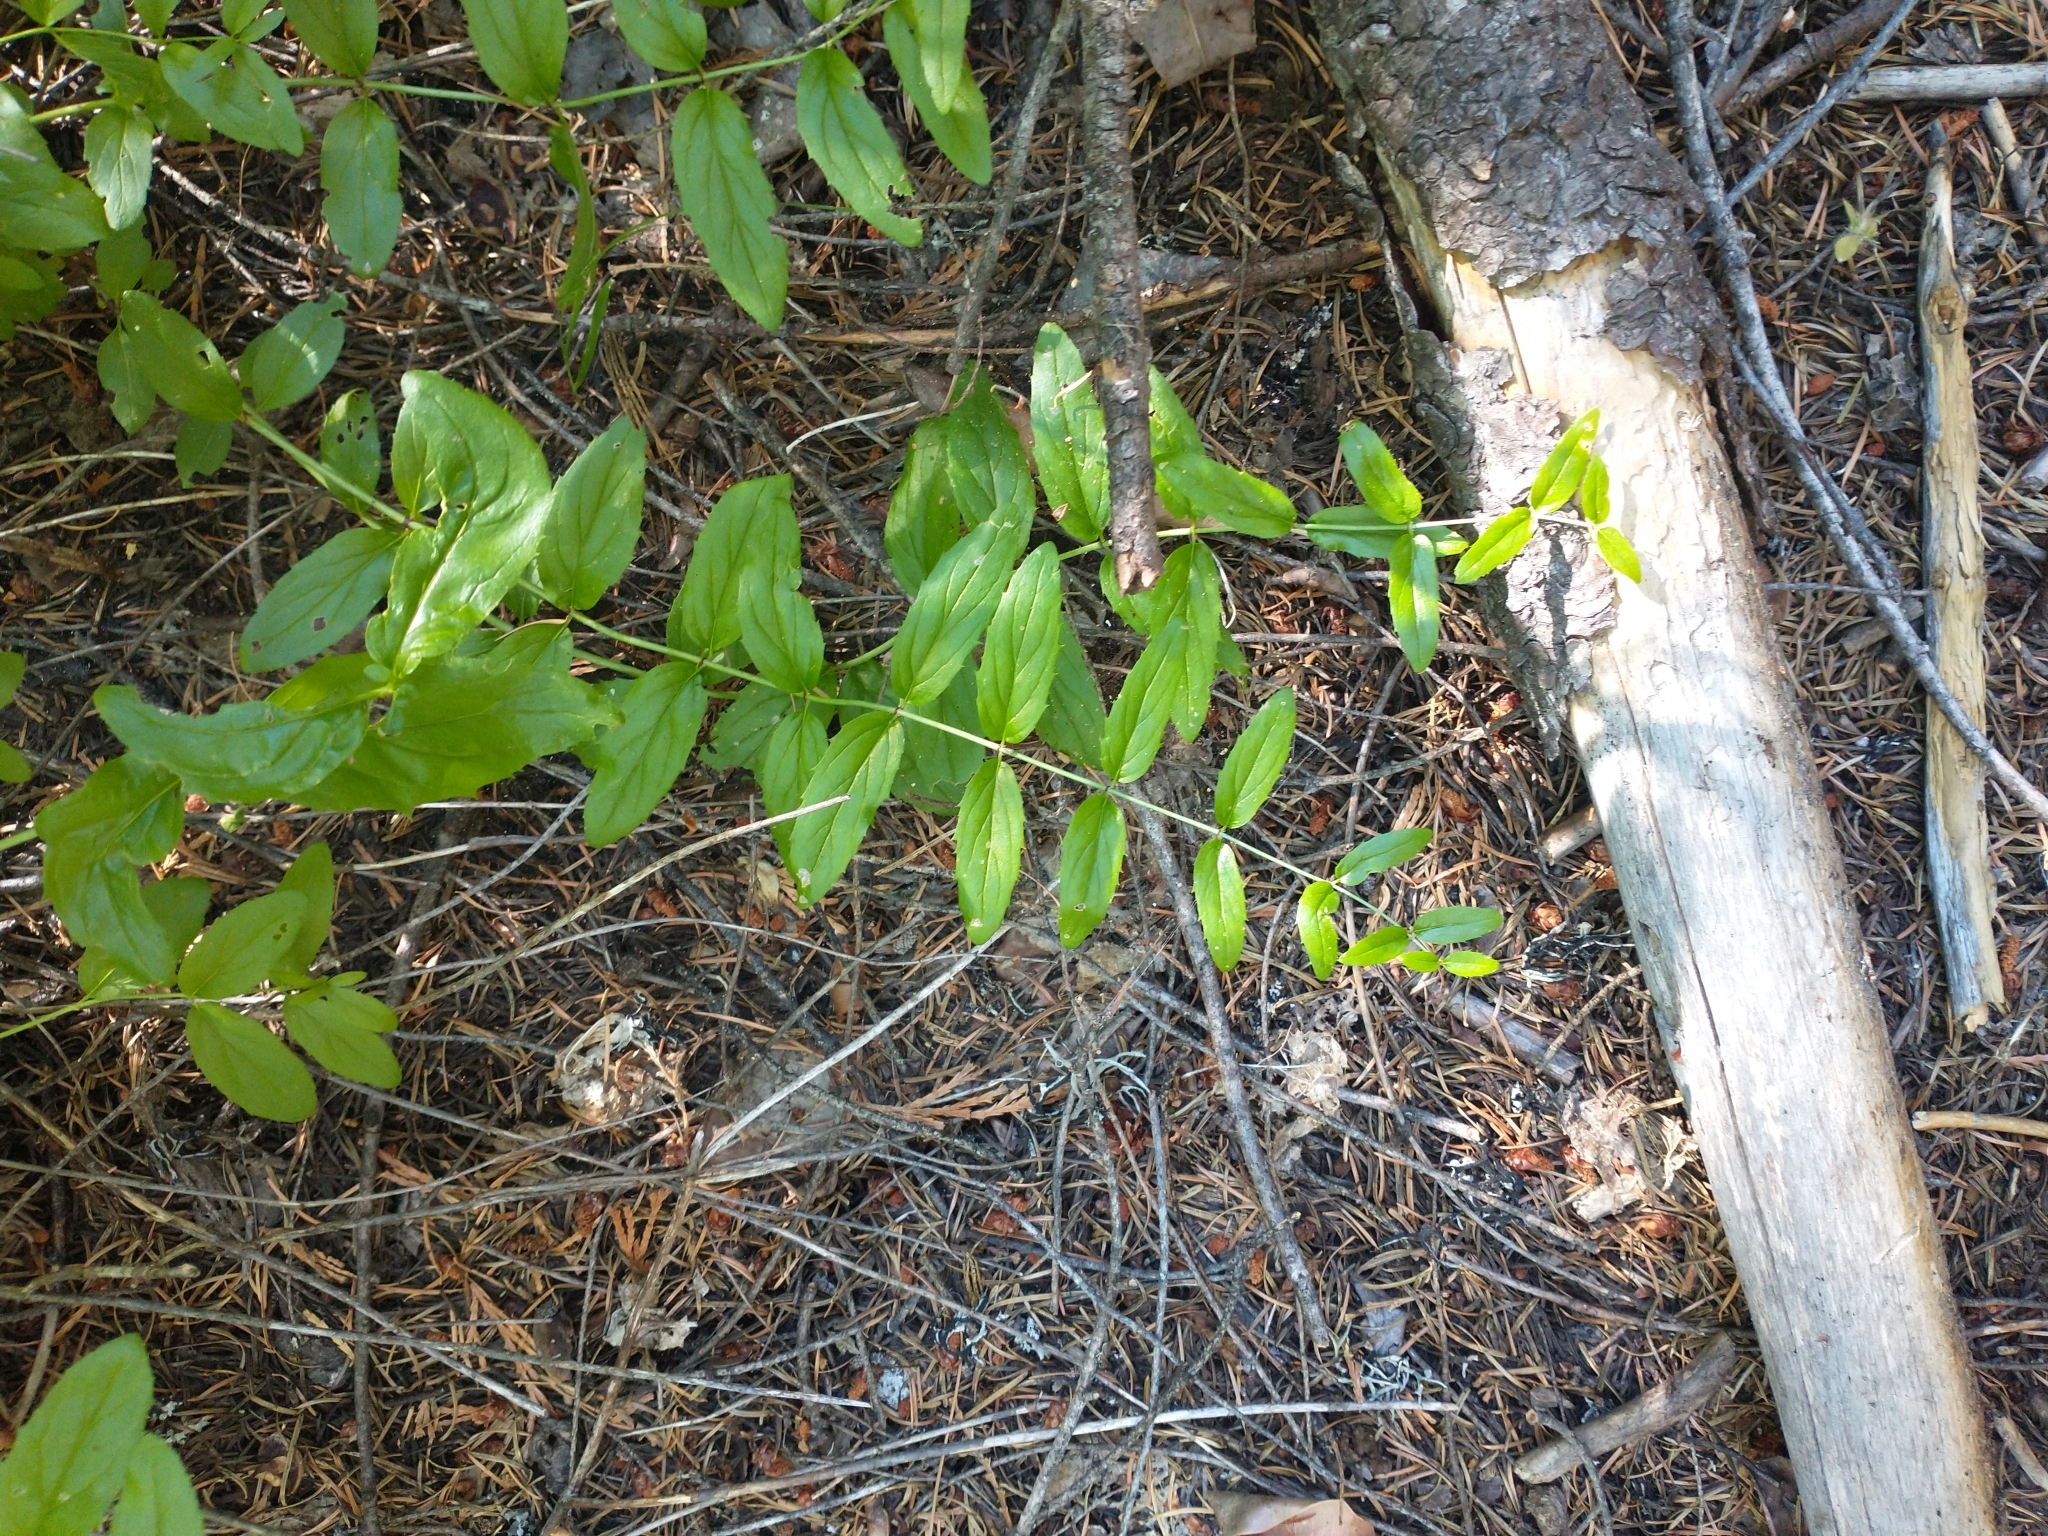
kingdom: Plantae
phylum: Tracheophyta
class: Magnoliopsida
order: Lamiales
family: Plantaginaceae
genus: Keckiella
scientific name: Keckiella lemmonii
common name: Lemmon's keckiella
